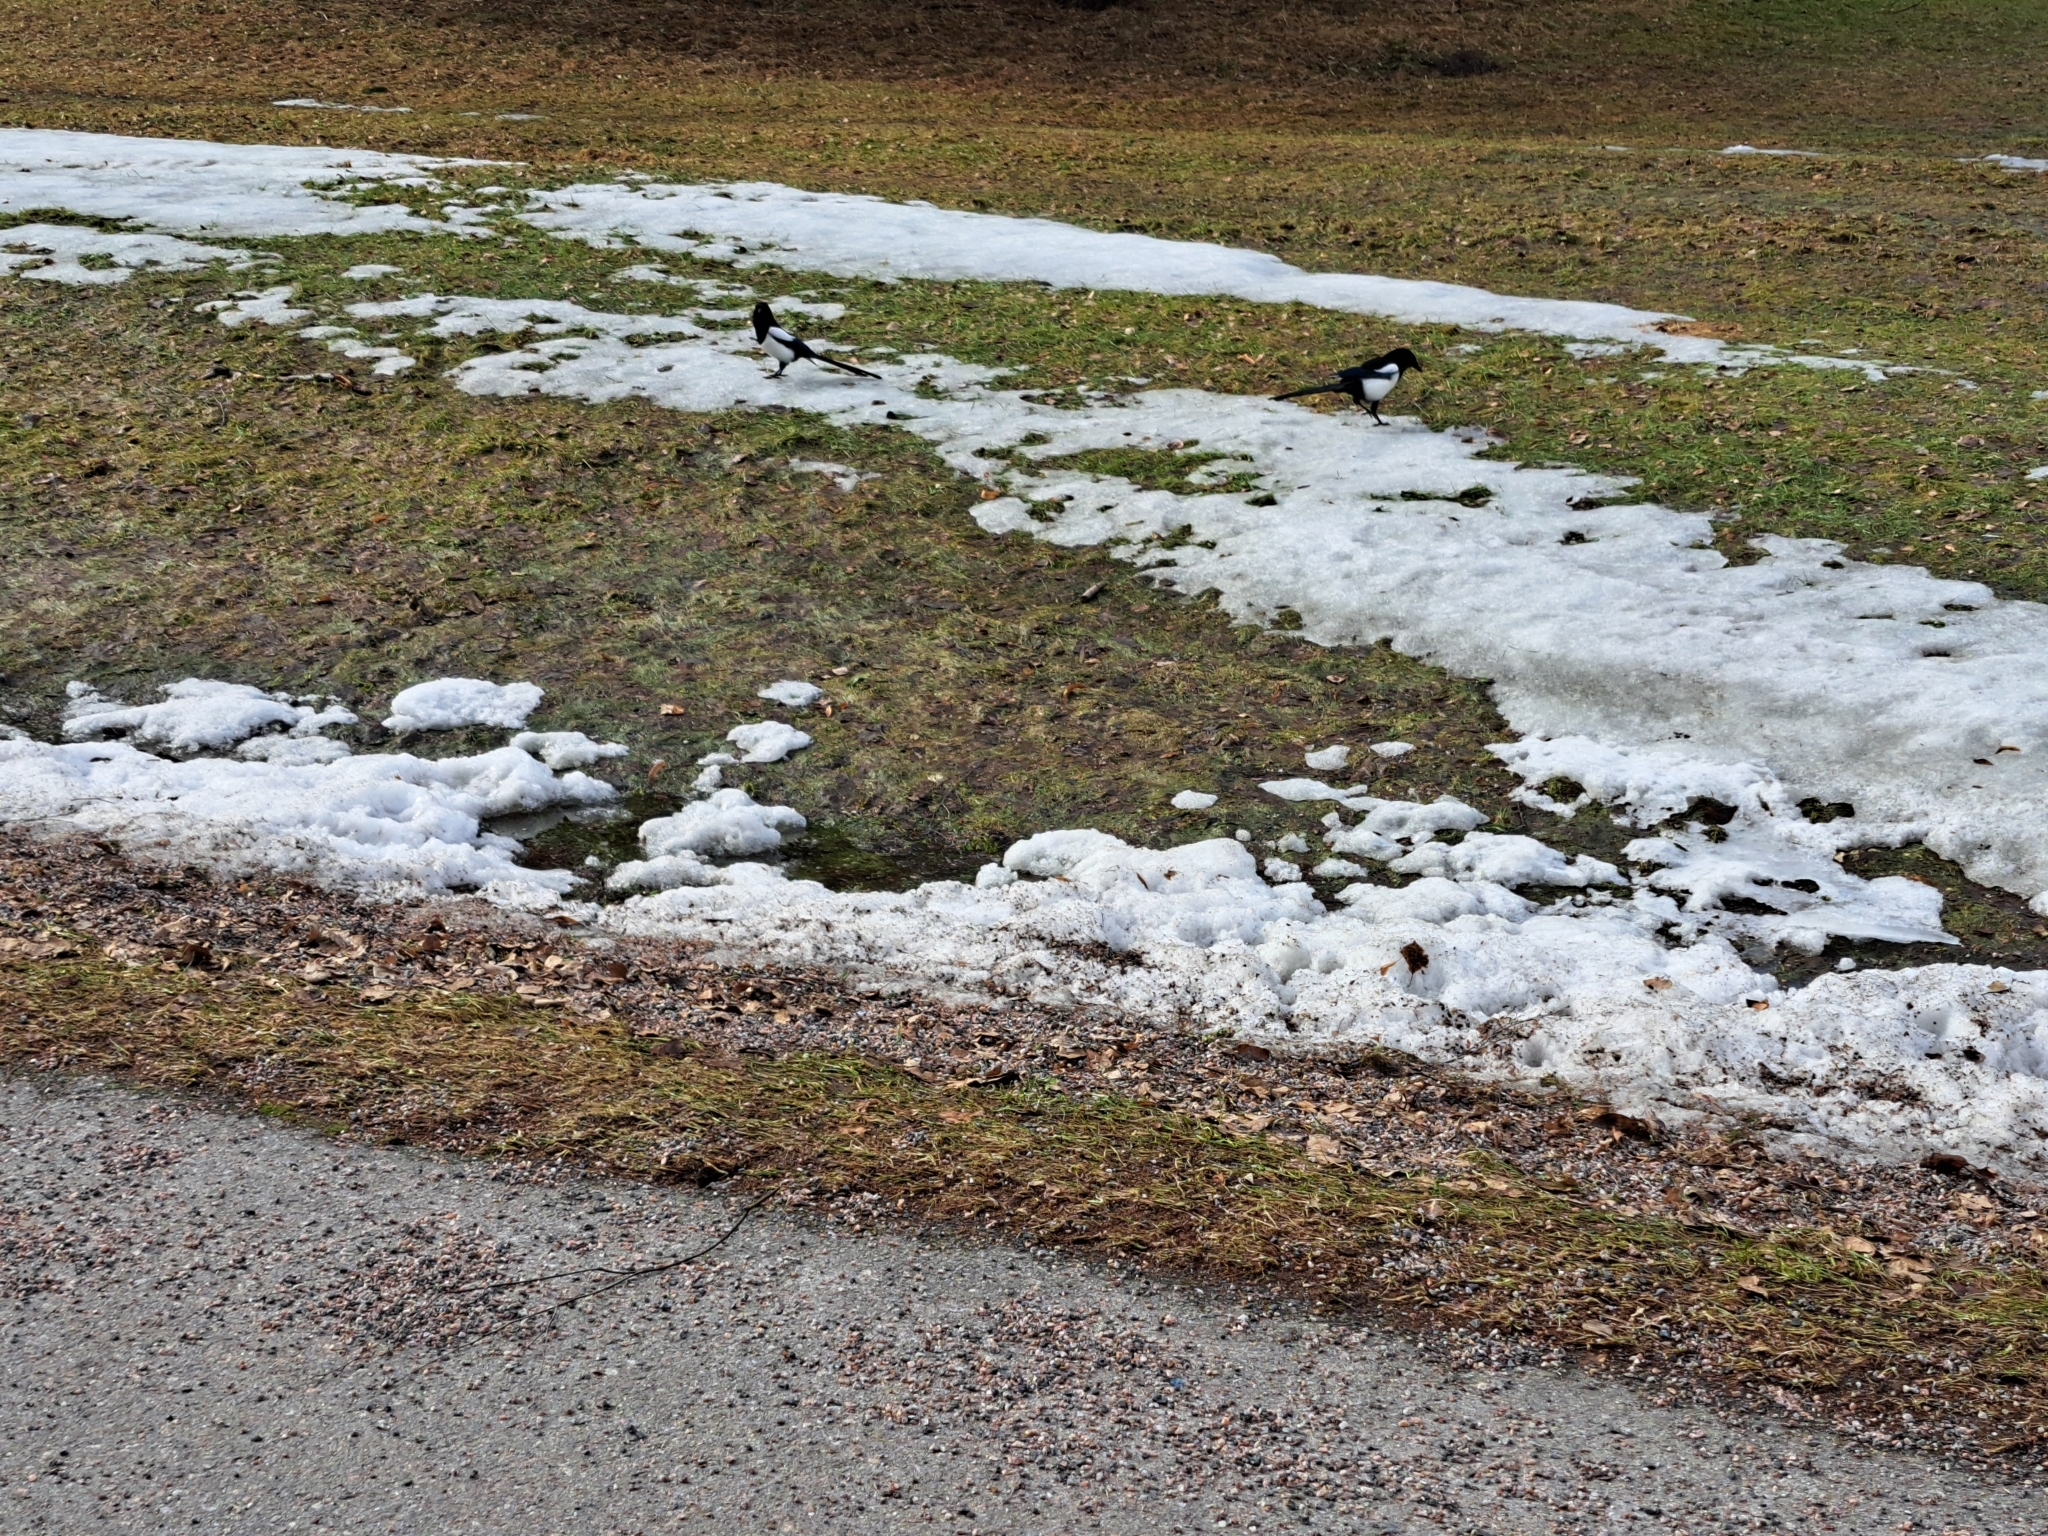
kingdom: Animalia
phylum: Chordata
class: Aves
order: Passeriformes
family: Corvidae
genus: Pica
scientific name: Pica pica
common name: Eurasian magpie
